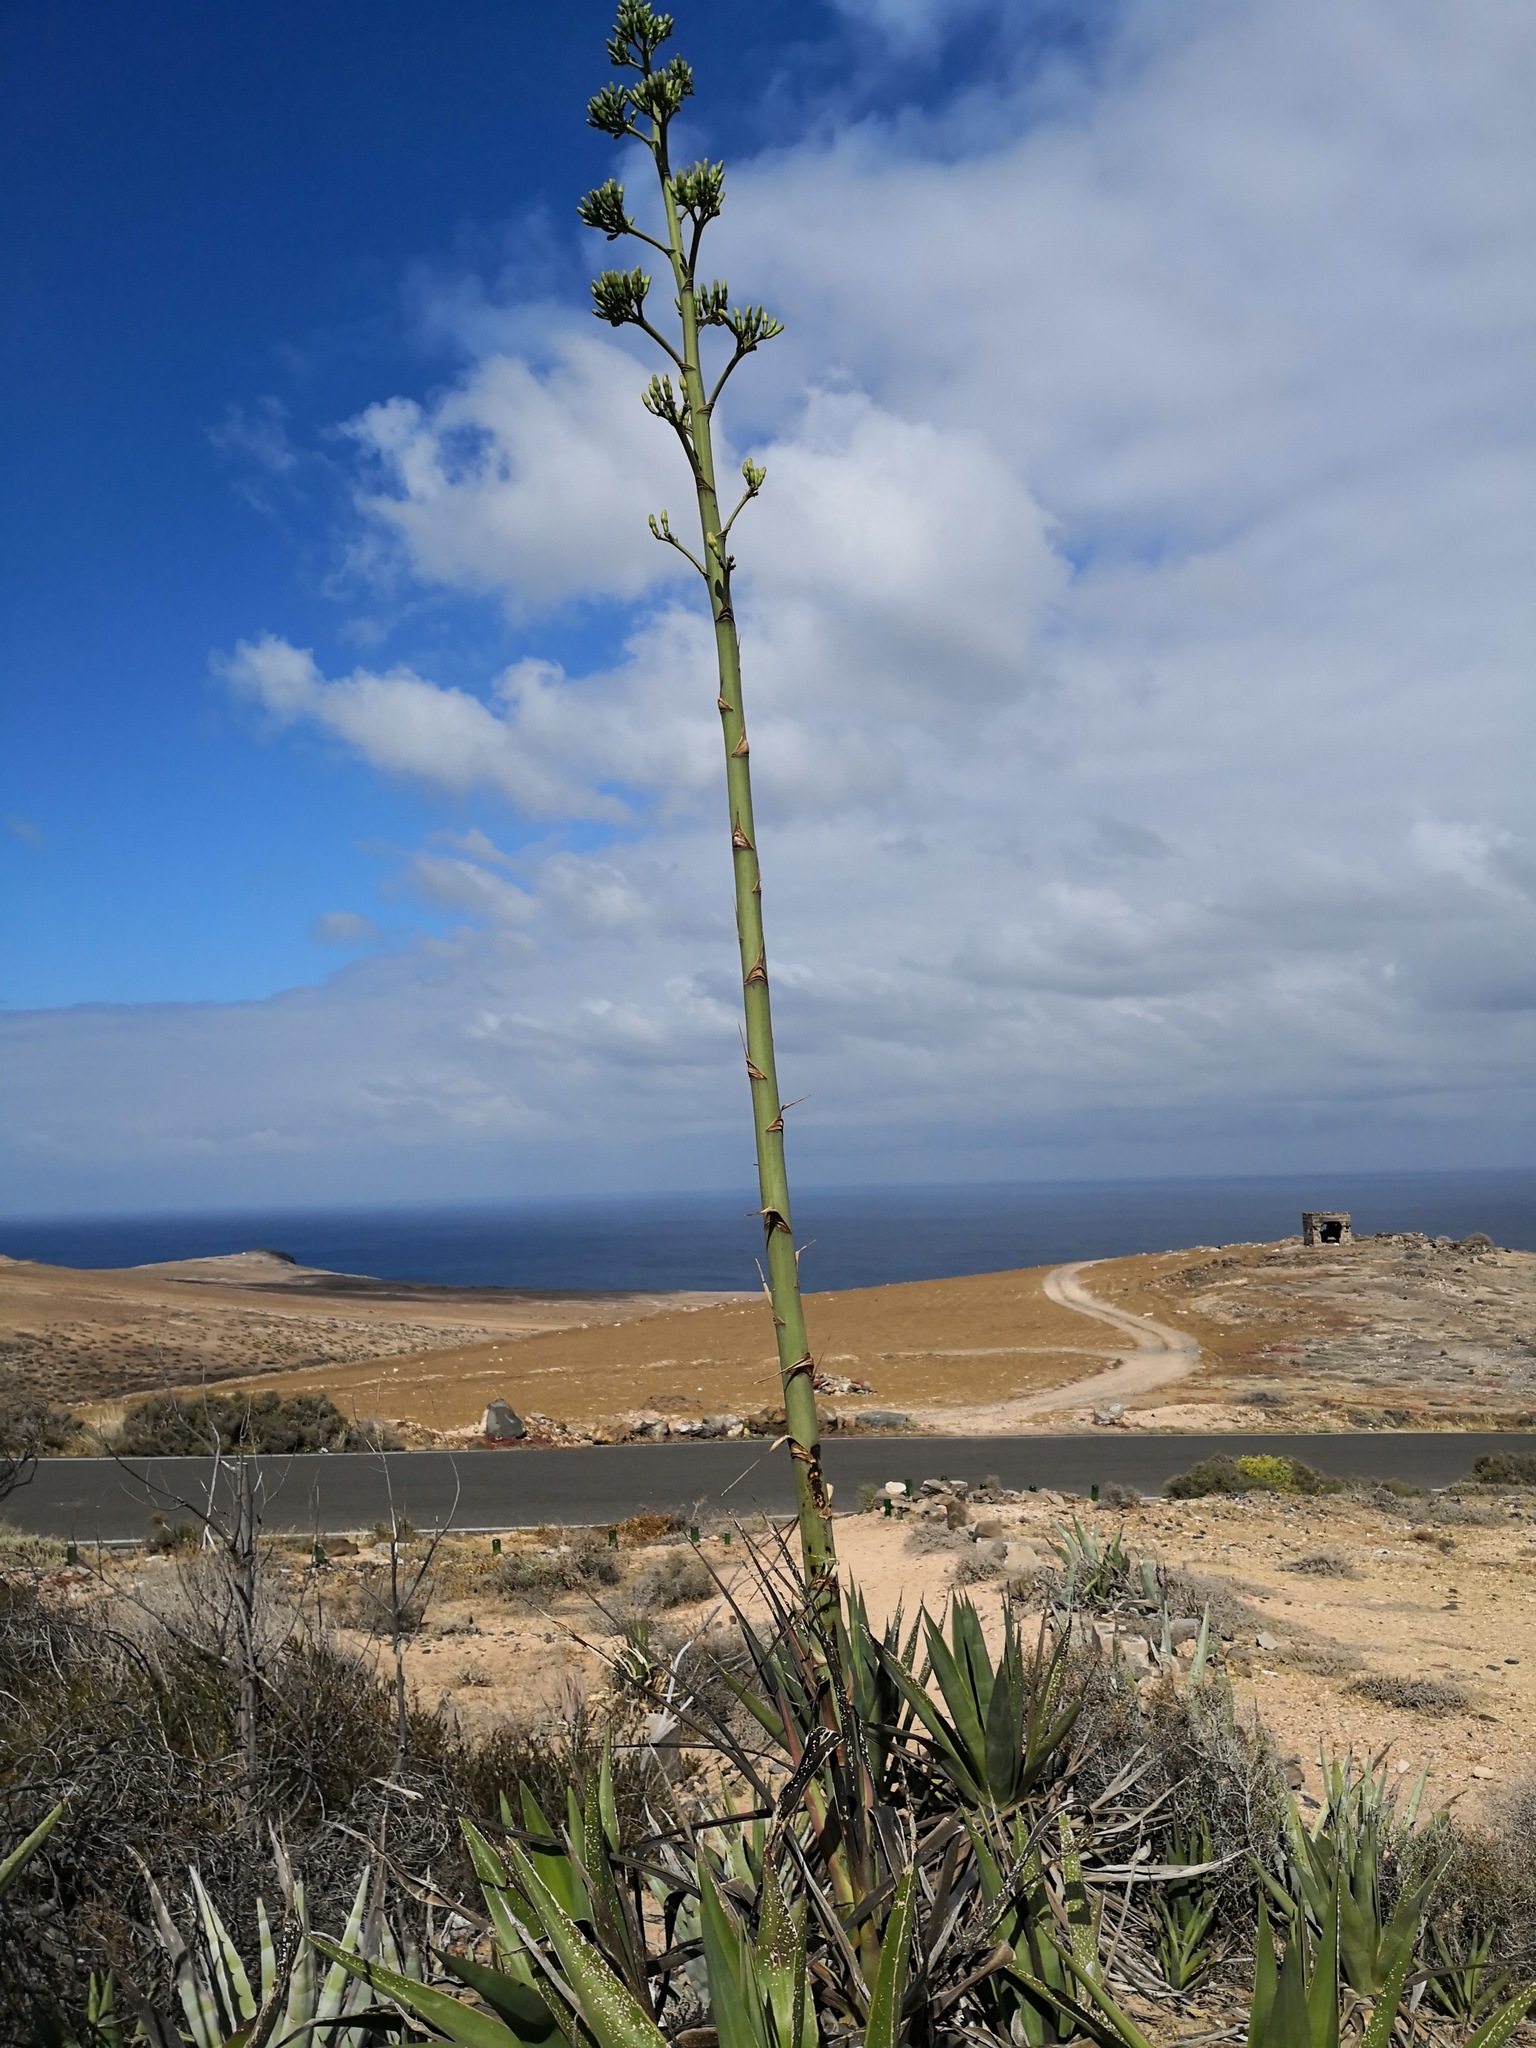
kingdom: Plantae
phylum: Tracheophyta
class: Liliopsida
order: Asparagales
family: Asparagaceae
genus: Agave
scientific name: Agave americana
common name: Centuryplant
